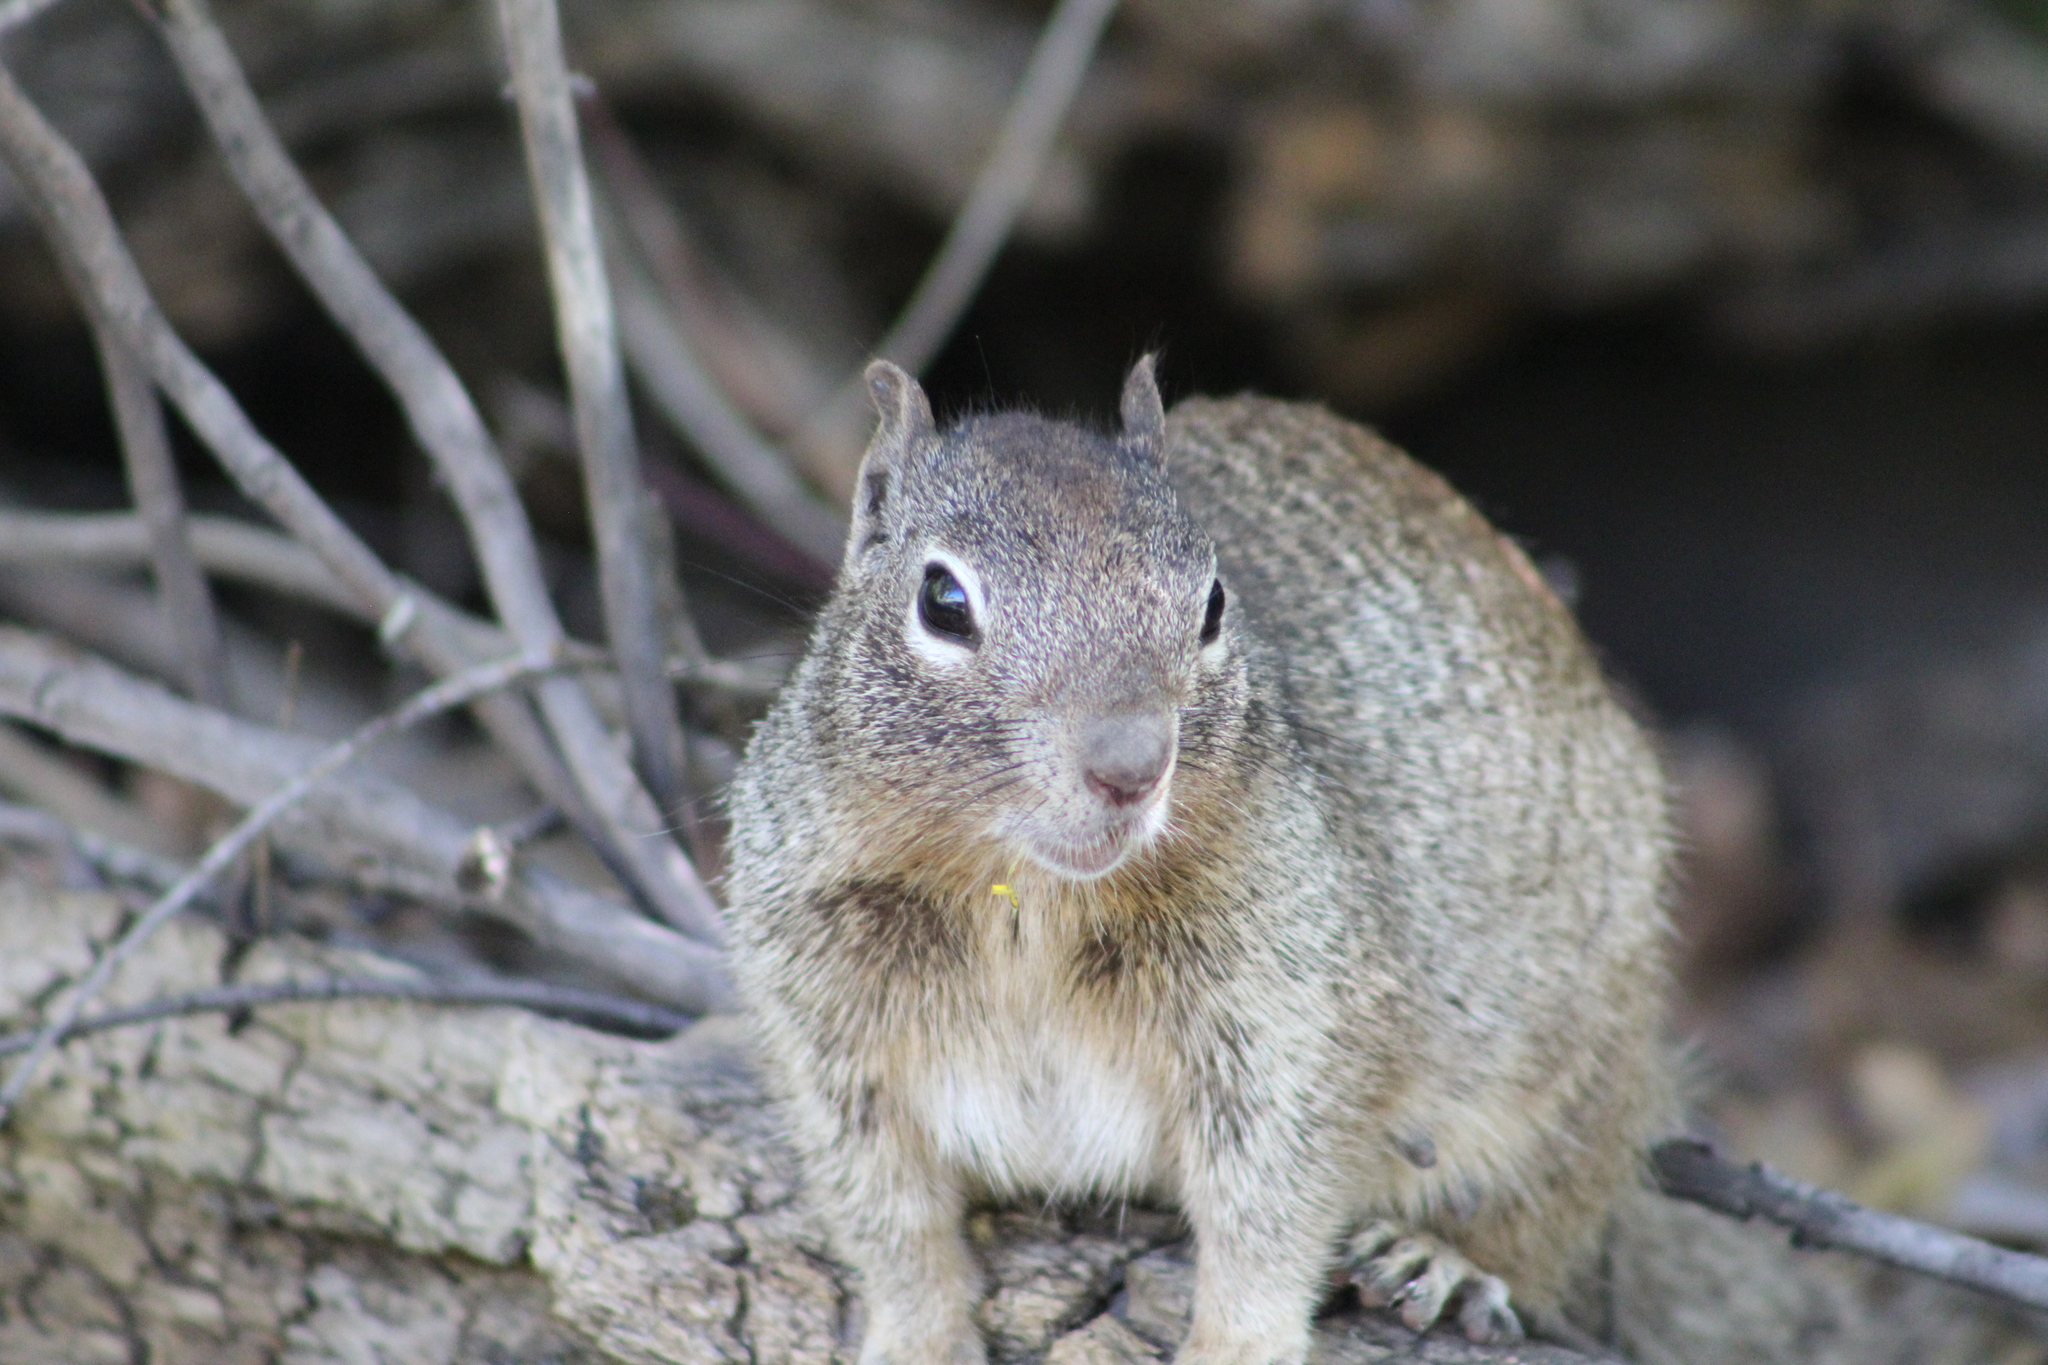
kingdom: Animalia
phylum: Chordata
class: Mammalia
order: Rodentia
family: Sciuridae
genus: Otospermophilus
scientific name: Otospermophilus variegatus
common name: Rock squirrel
